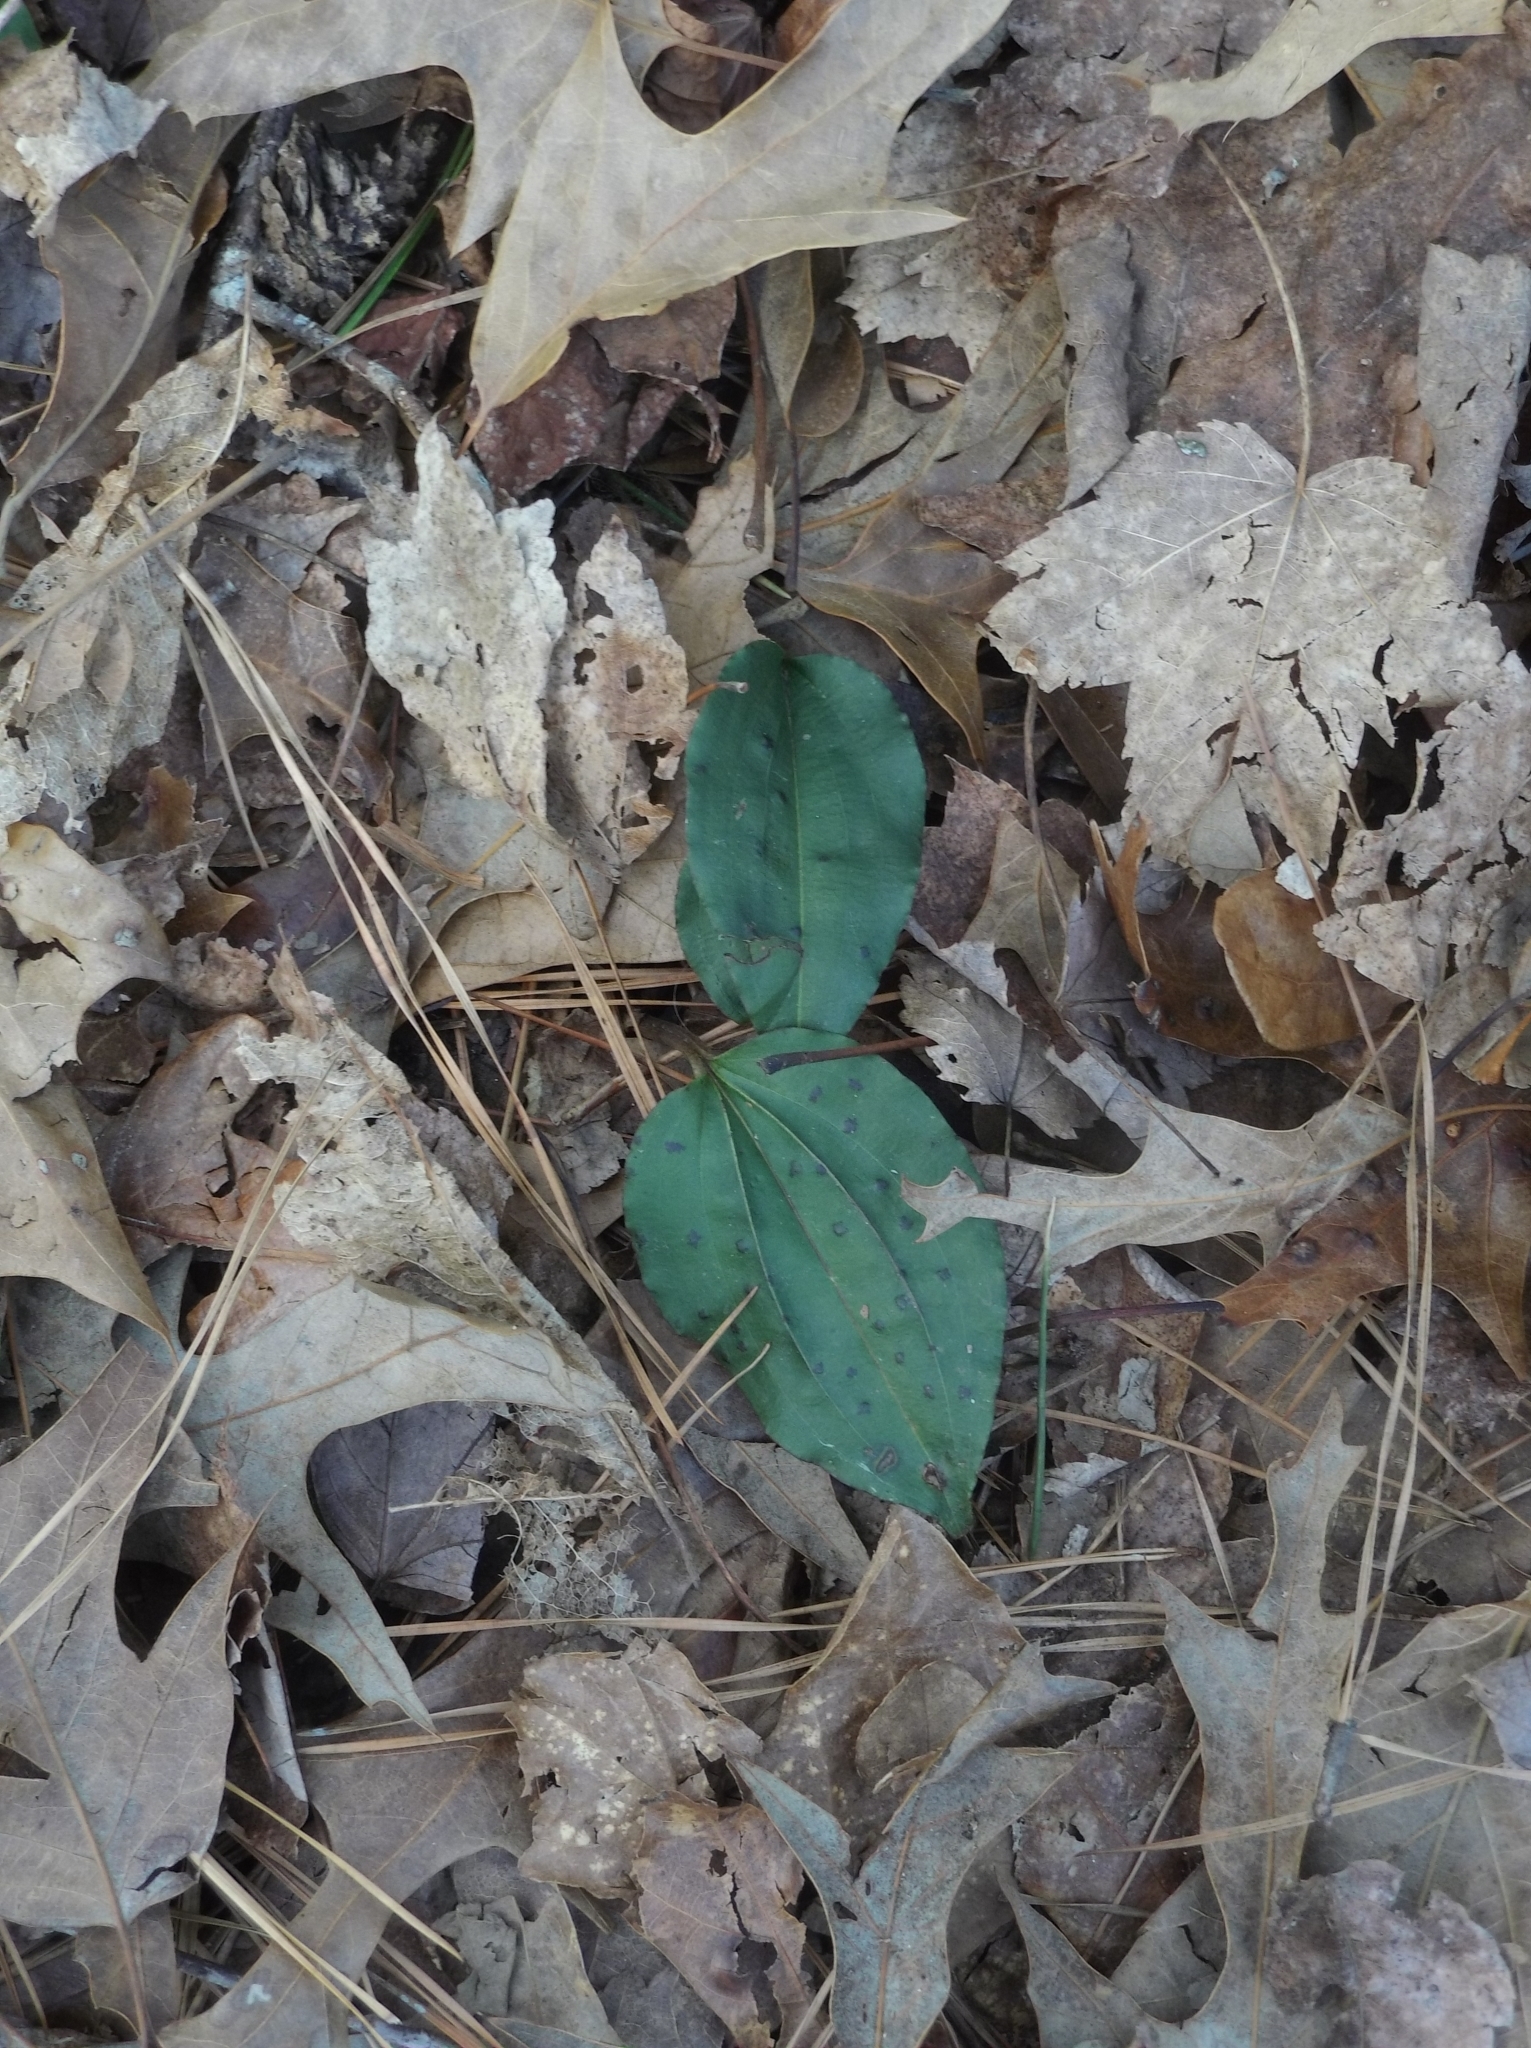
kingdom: Plantae
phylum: Tracheophyta
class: Liliopsida
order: Asparagales
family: Orchidaceae
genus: Tipularia
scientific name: Tipularia discolor
